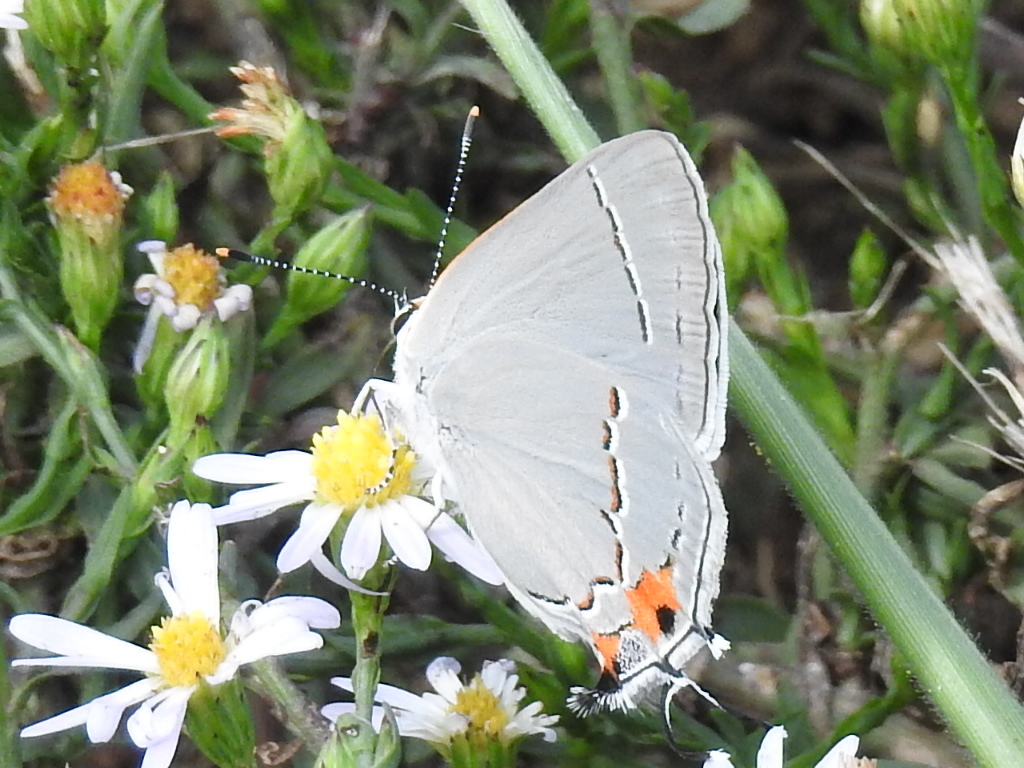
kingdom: Animalia
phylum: Arthropoda
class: Insecta
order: Lepidoptera
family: Lycaenidae
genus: Strymon
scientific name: Strymon melinus
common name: Gray hairstreak
